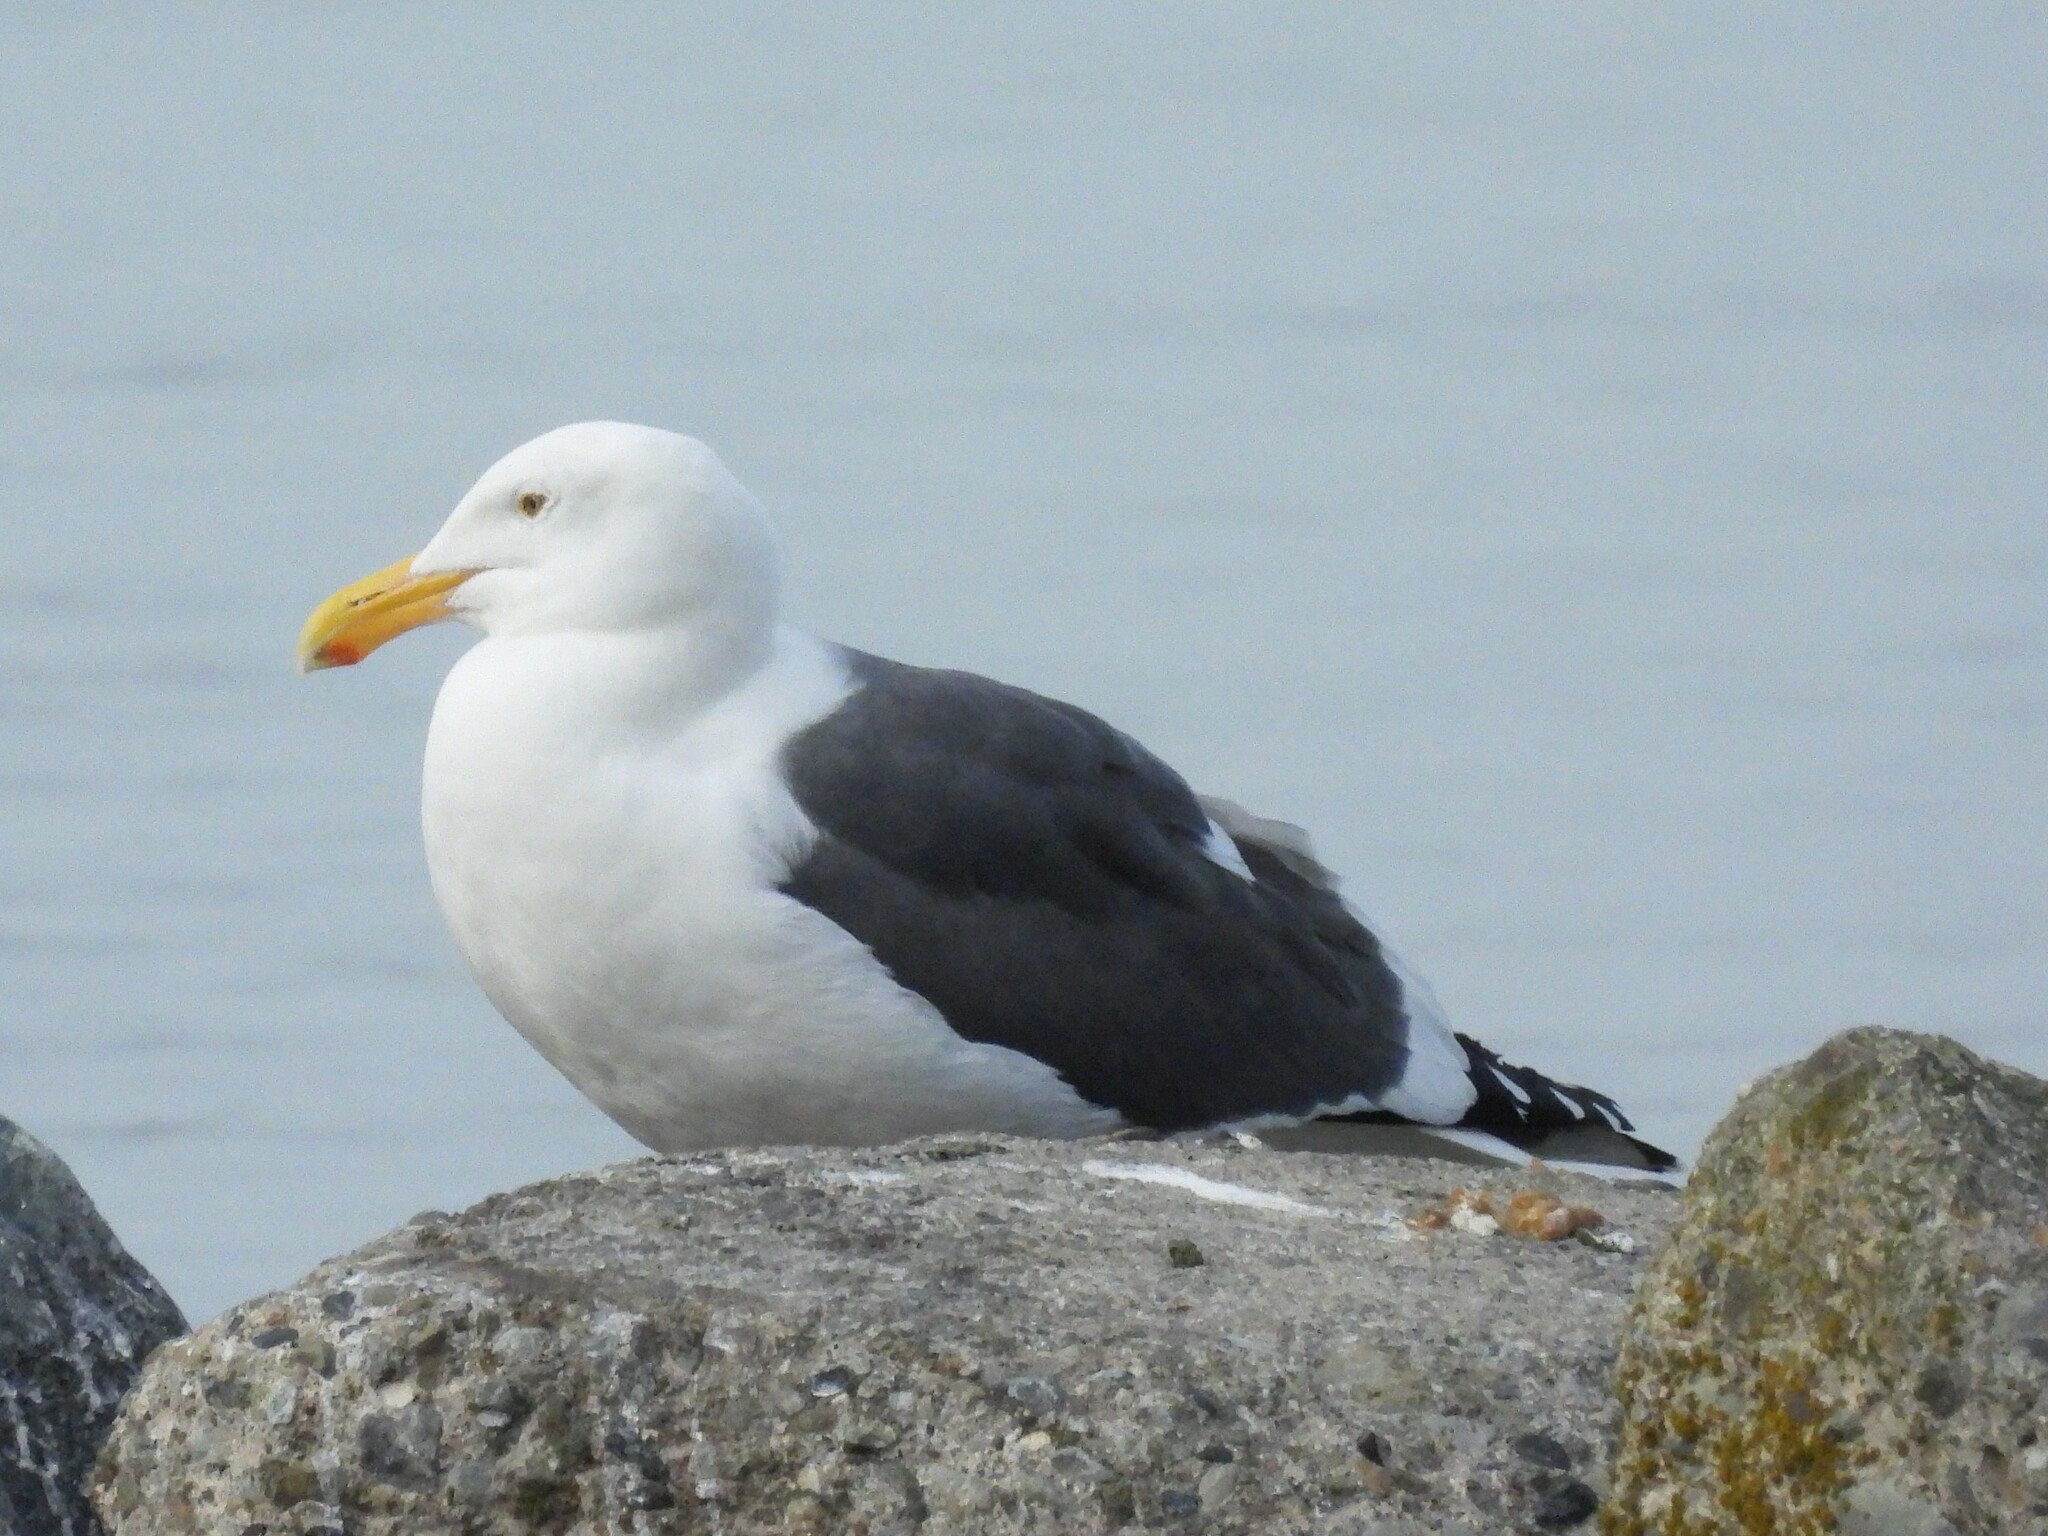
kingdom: Animalia
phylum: Chordata
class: Aves
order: Charadriiformes
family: Laridae
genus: Larus
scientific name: Larus occidentalis
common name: Western gull
